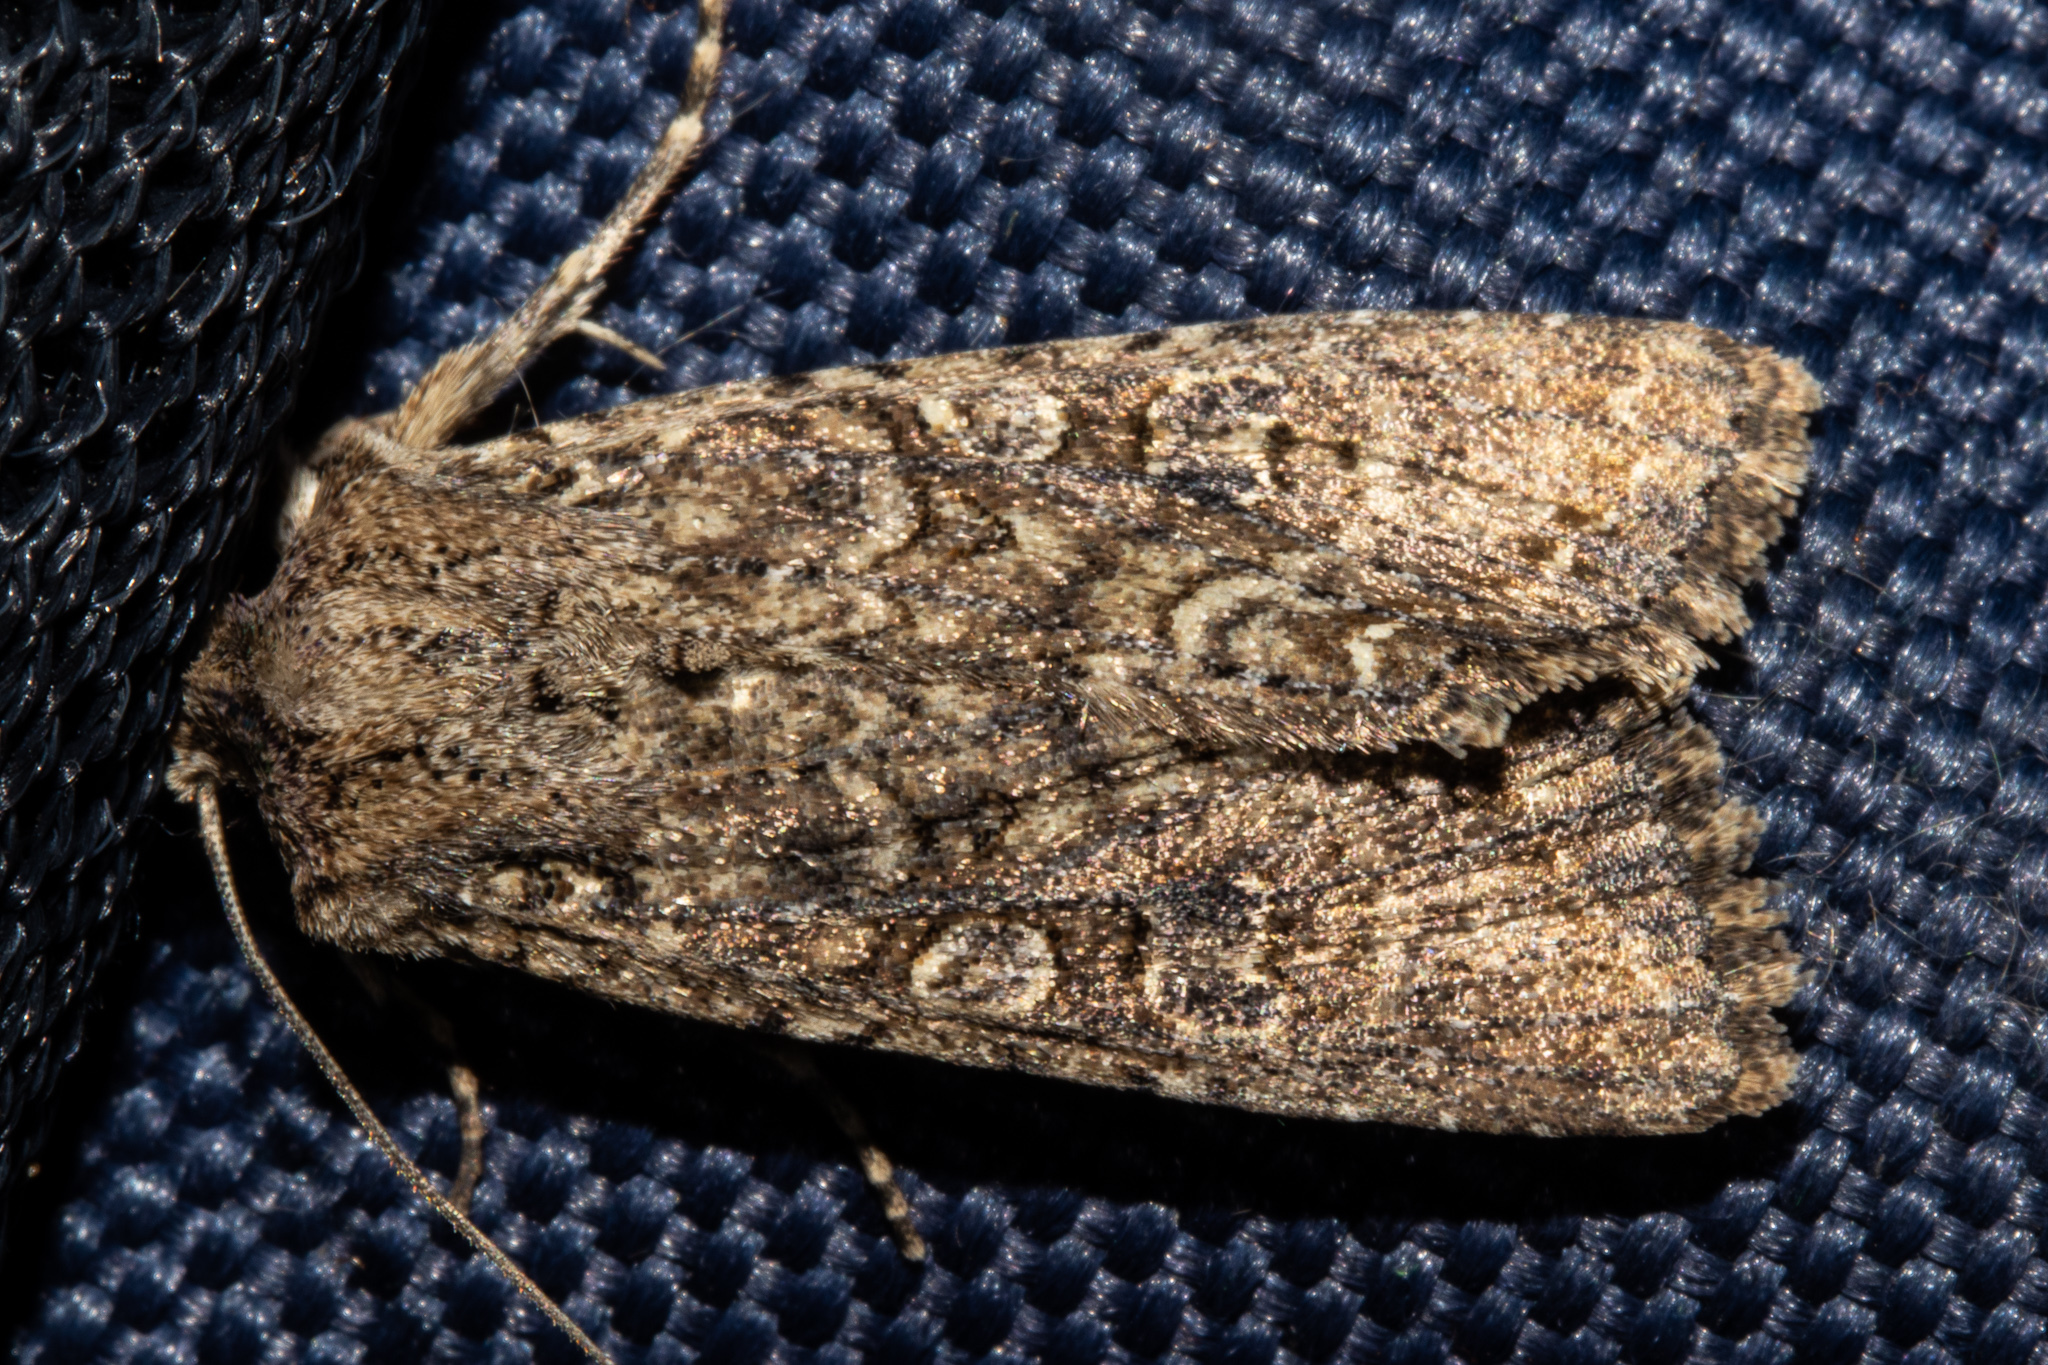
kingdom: Animalia
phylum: Arthropoda
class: Insecta
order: Lepidoptera
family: Noctuidae
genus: Ichneutica
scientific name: Ichneutica morosa
